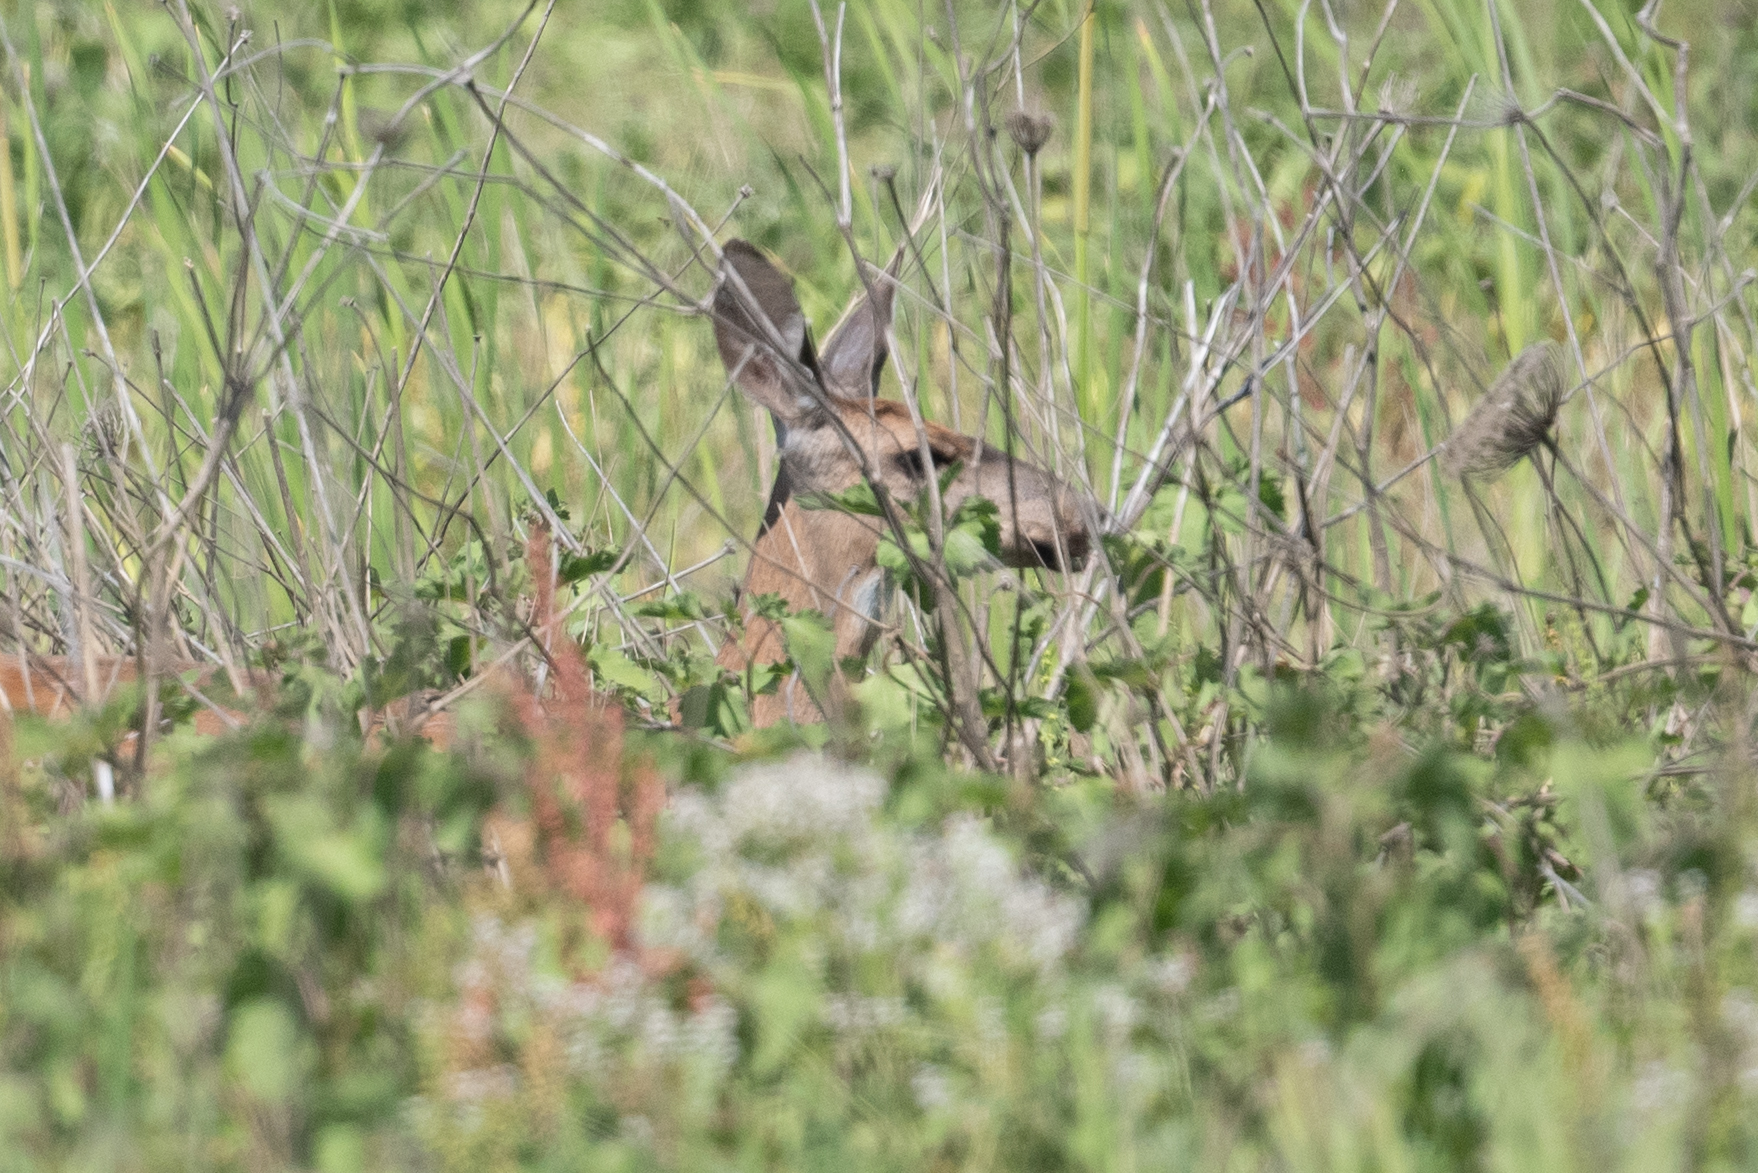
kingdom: Animalia
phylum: Chordata
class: Mammalia
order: Artiodactyla
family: Cervidae
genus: Odocoileus
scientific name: Odocoileus hemionus
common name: Mule deer
